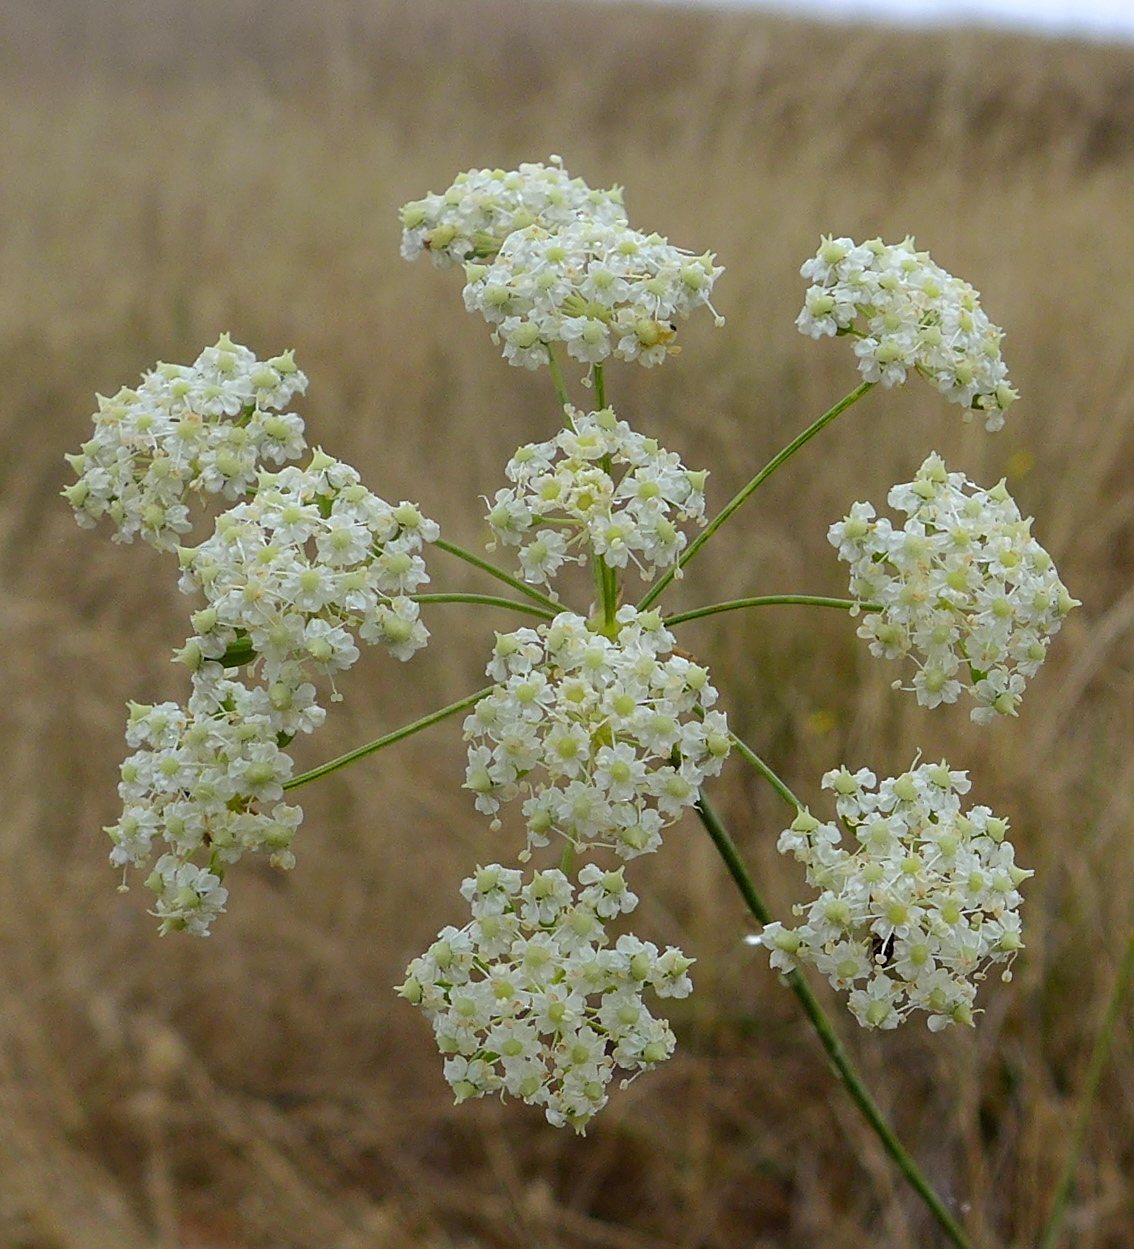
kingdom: Plantae
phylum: Tracheophyta
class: Magnoliopsida
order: Apiales
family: Apiaceae
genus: Perideridia
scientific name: Perideridia gairdneri
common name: False caraway
